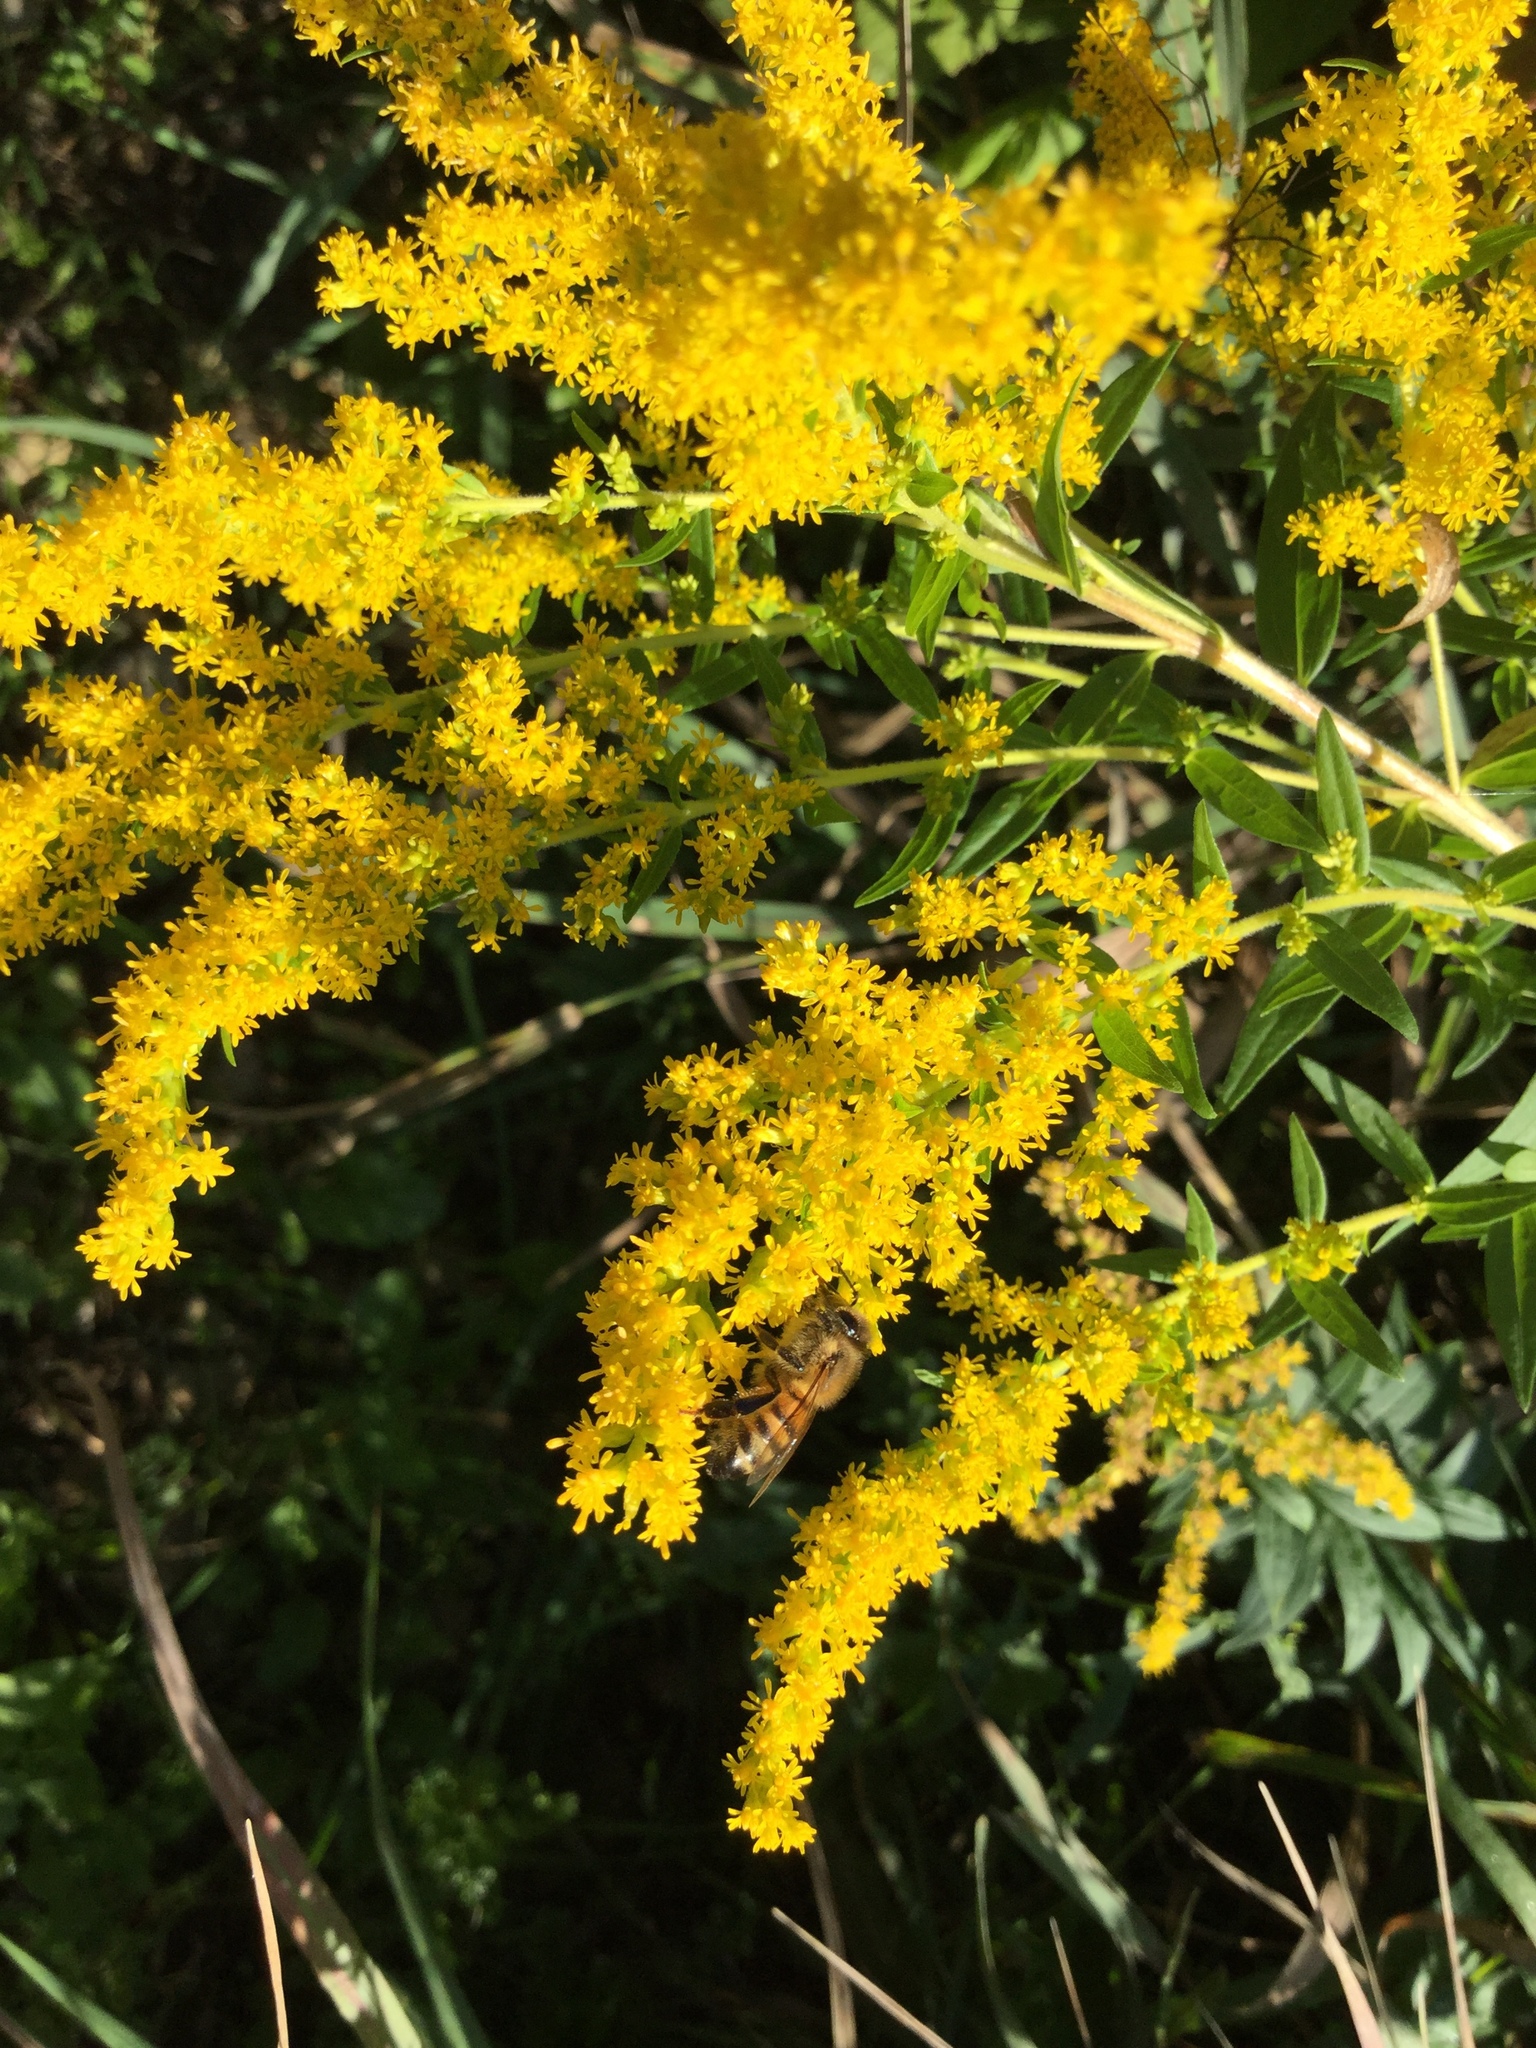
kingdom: Animalia
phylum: Arthropoda
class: Insecta
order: Hymenoptera
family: Apidae
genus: Apis
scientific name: Apis mellifera
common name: Honey bee
